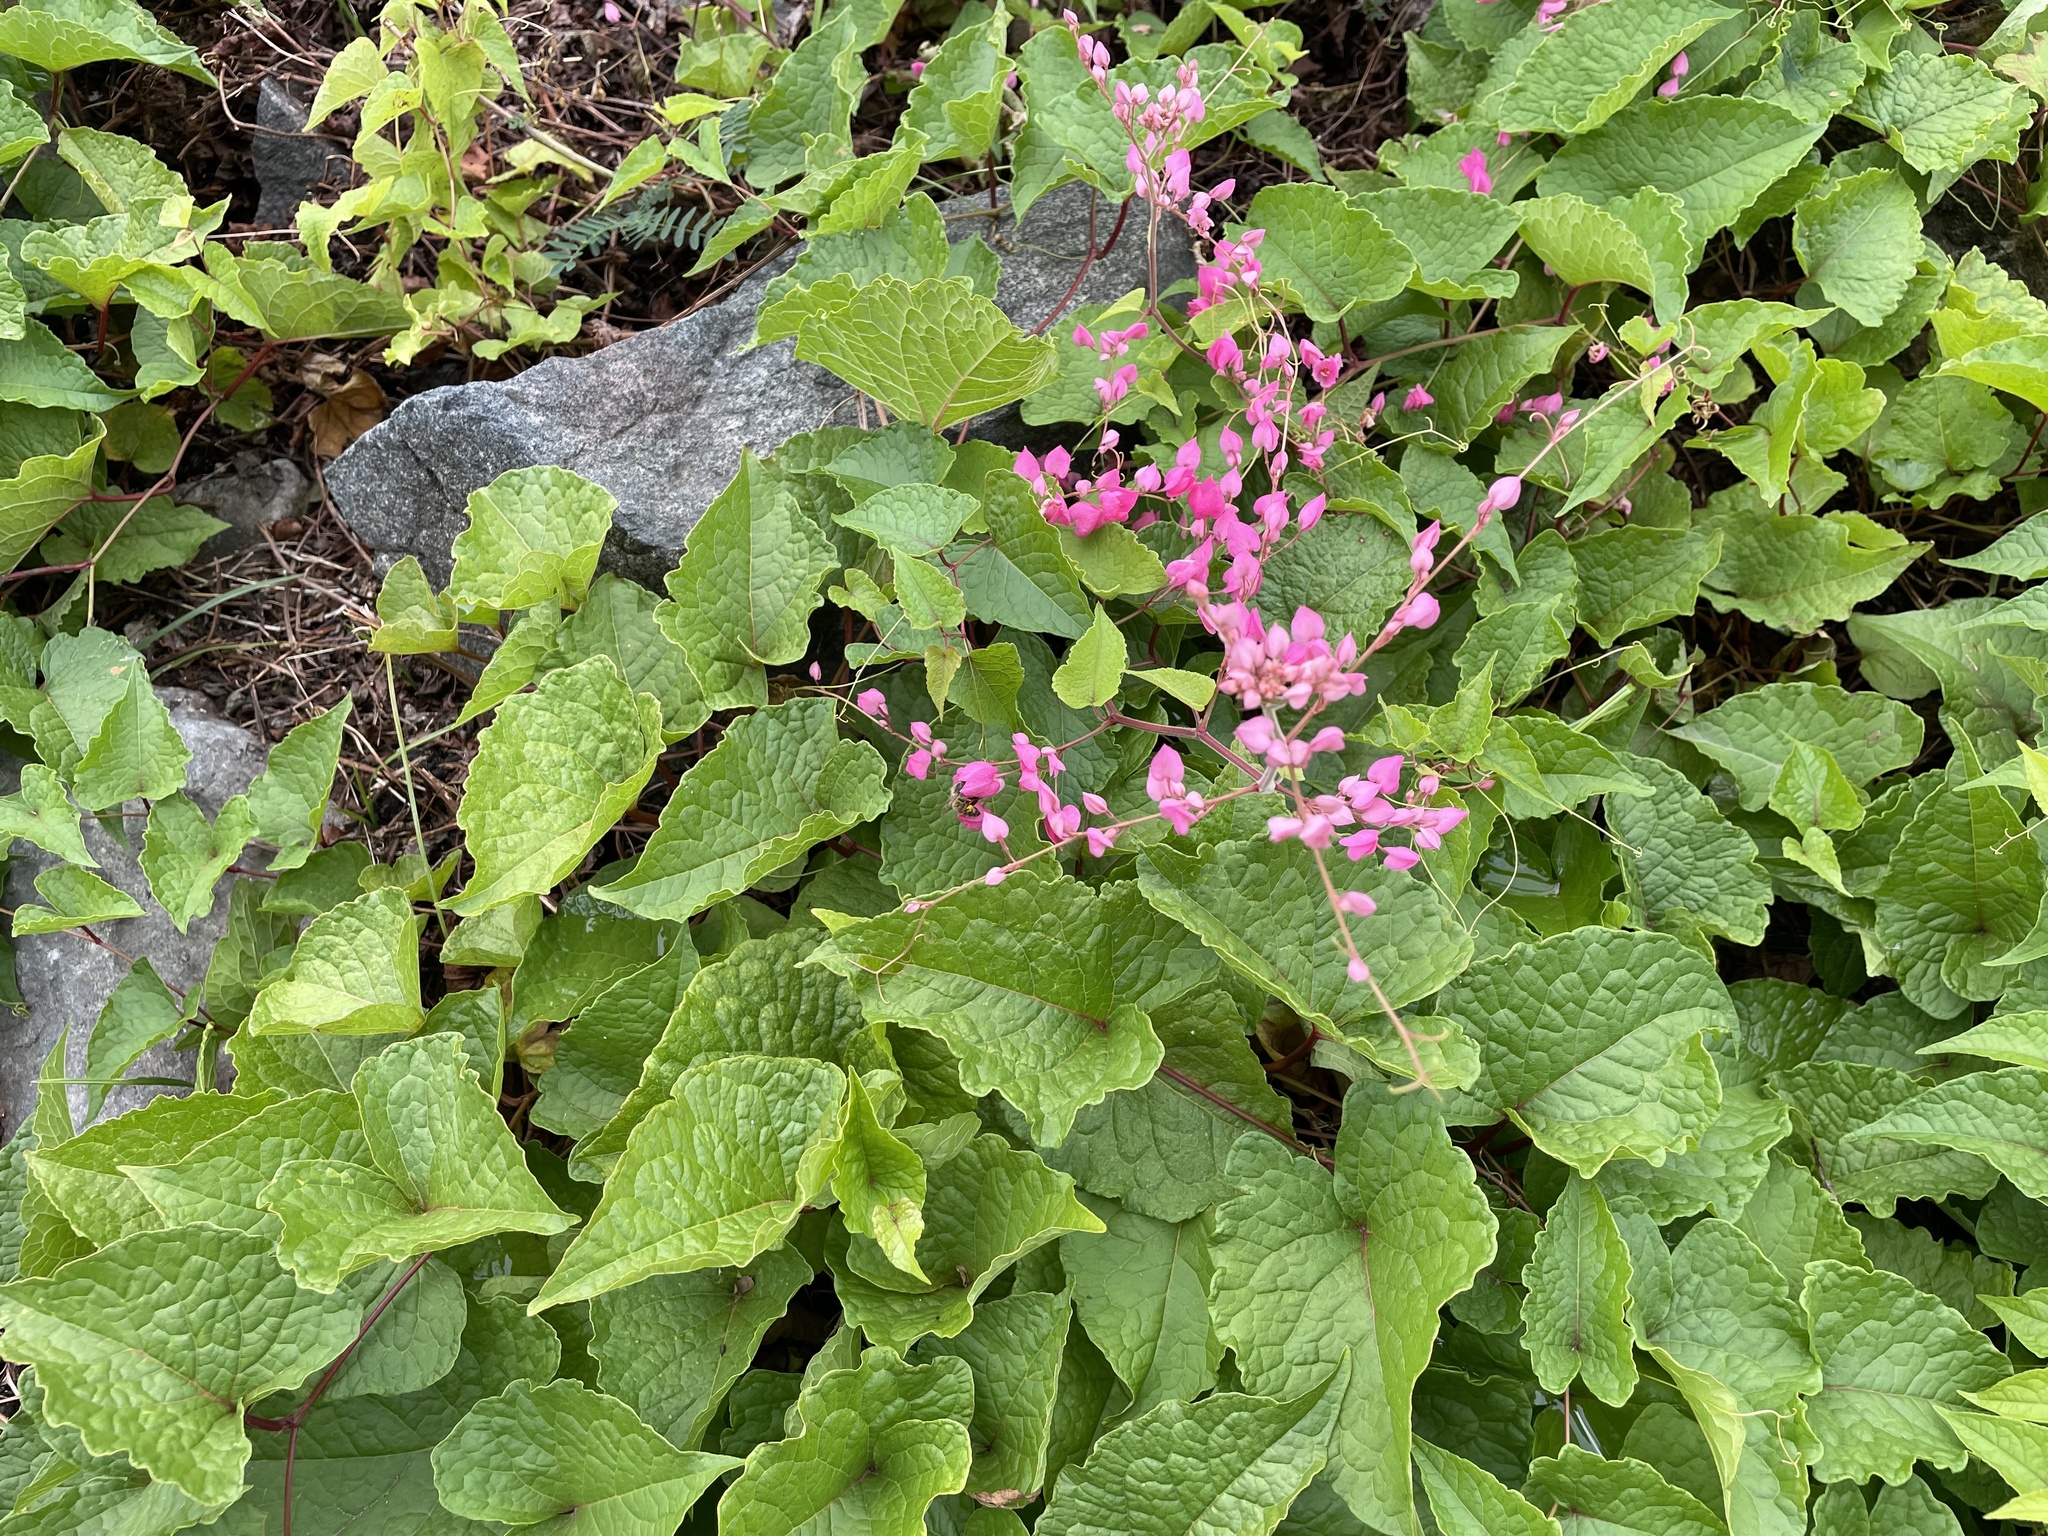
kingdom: Plantae
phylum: Tracheophyta
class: Magnoliopsida
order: Caryophyllales
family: Polygonaceae
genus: Antigonon
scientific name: Antigonon leptopus
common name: Coral vine
